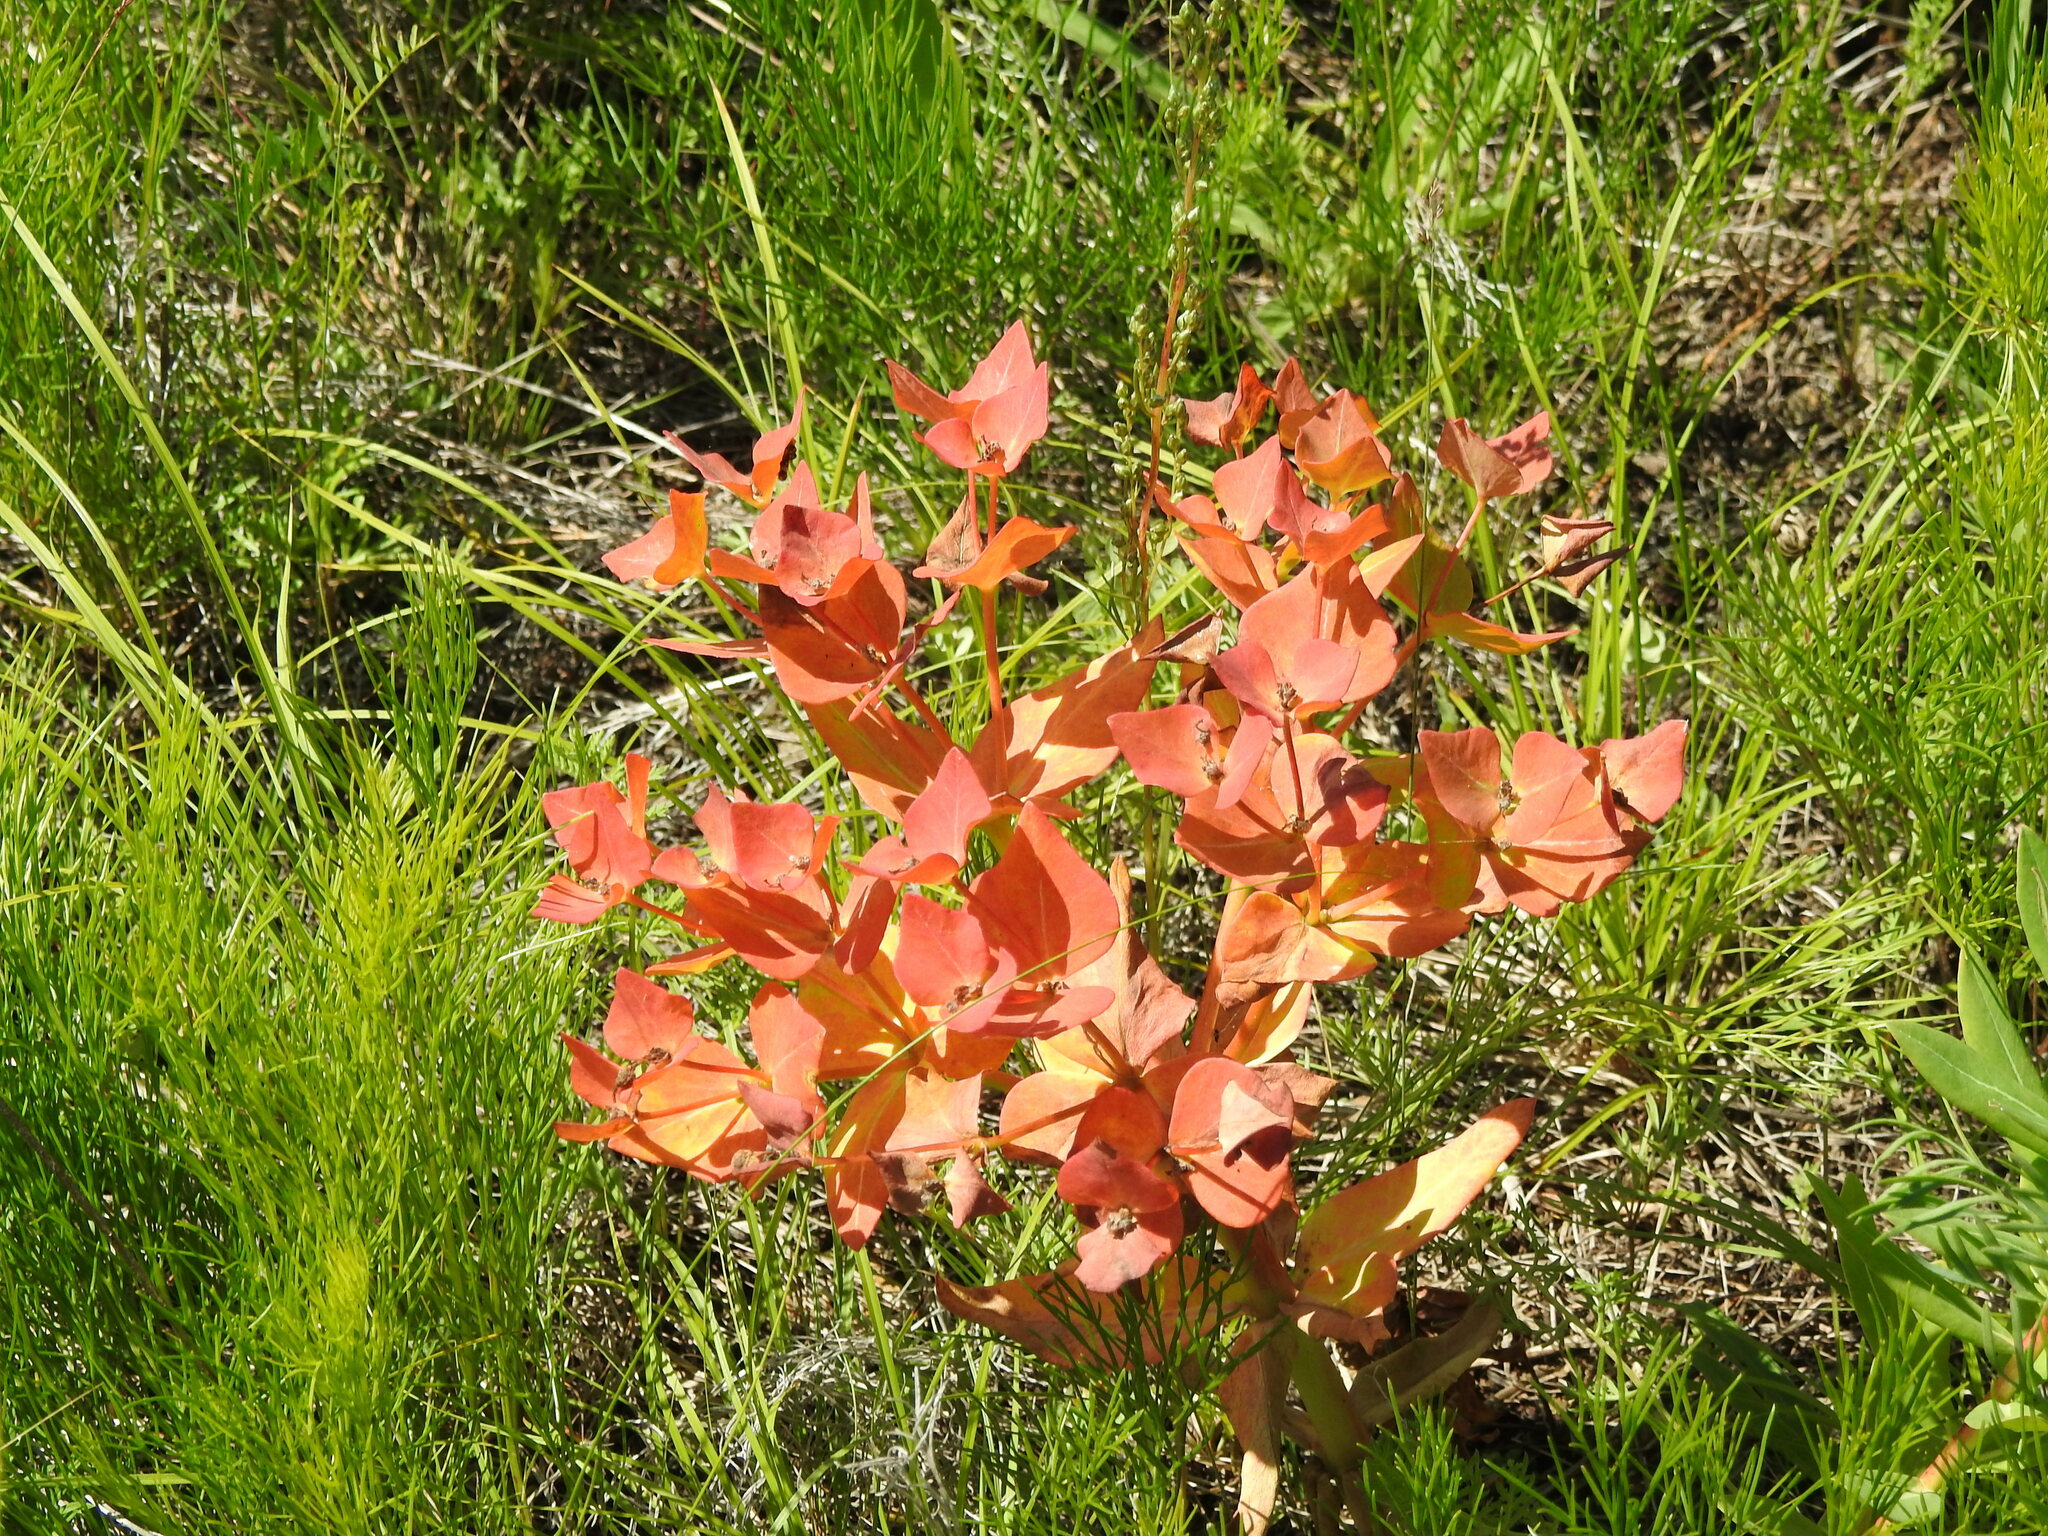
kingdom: Plantae
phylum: Tracheophyta
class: Magnoliopsida
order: Malpighiales
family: Euphorbiaceae
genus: Euphorbia
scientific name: Euphorbia fischeriana
